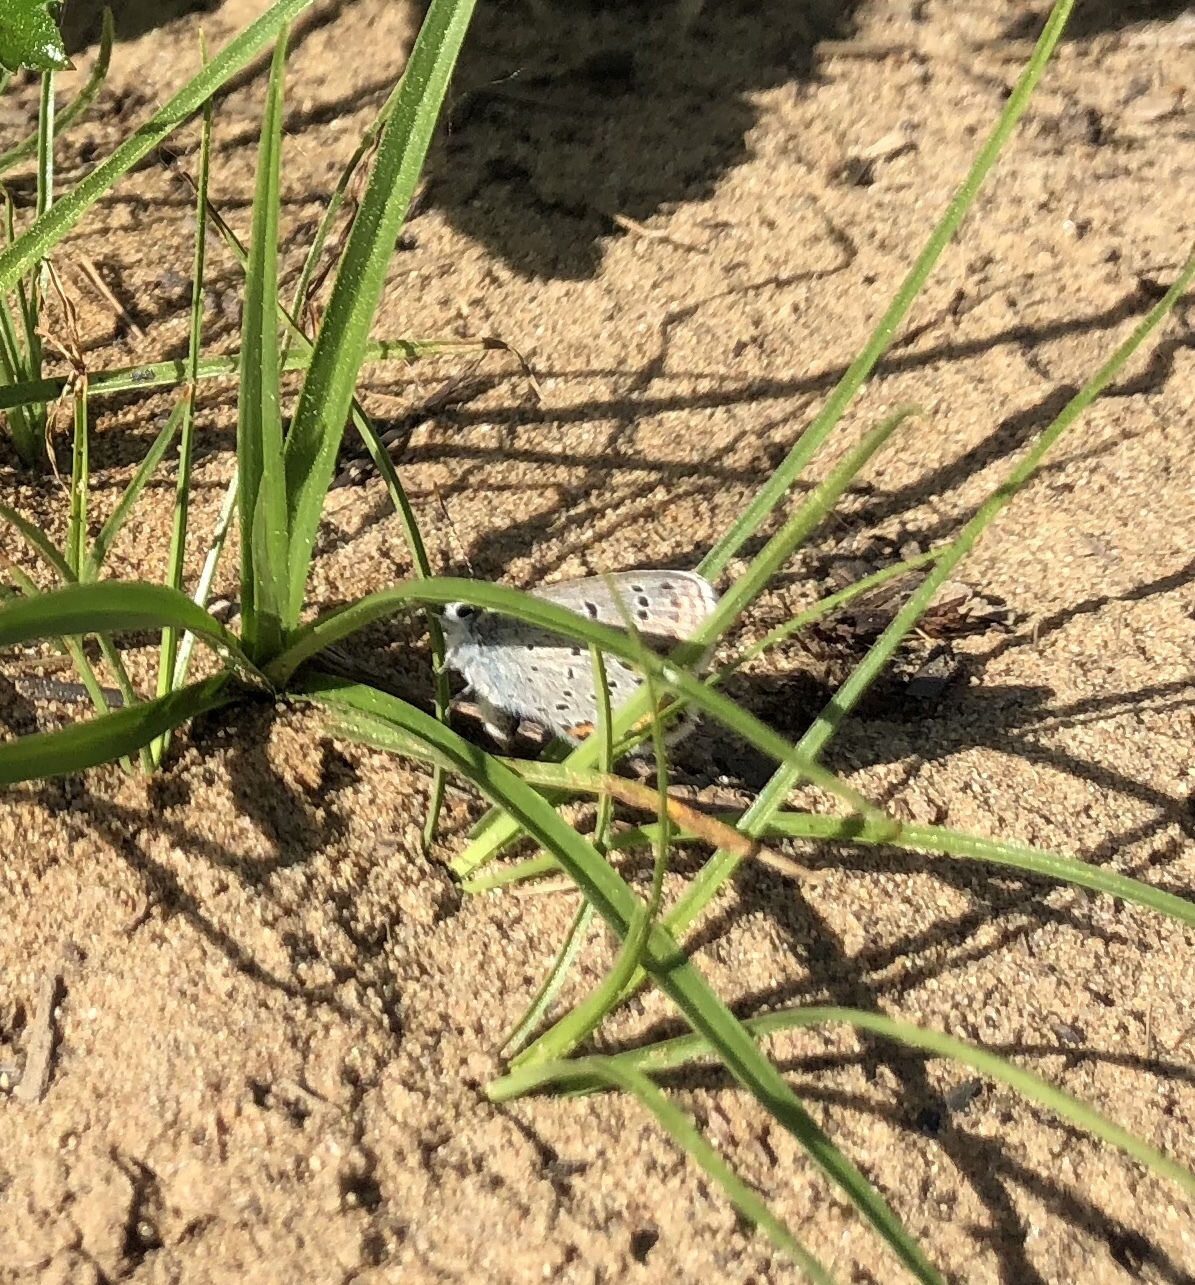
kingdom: Animalia
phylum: Arthropoda
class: Insecta
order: Lepidoptera
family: Lycaenidae
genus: Plebejus
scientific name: Plebejus samuelis
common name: Karner blue
